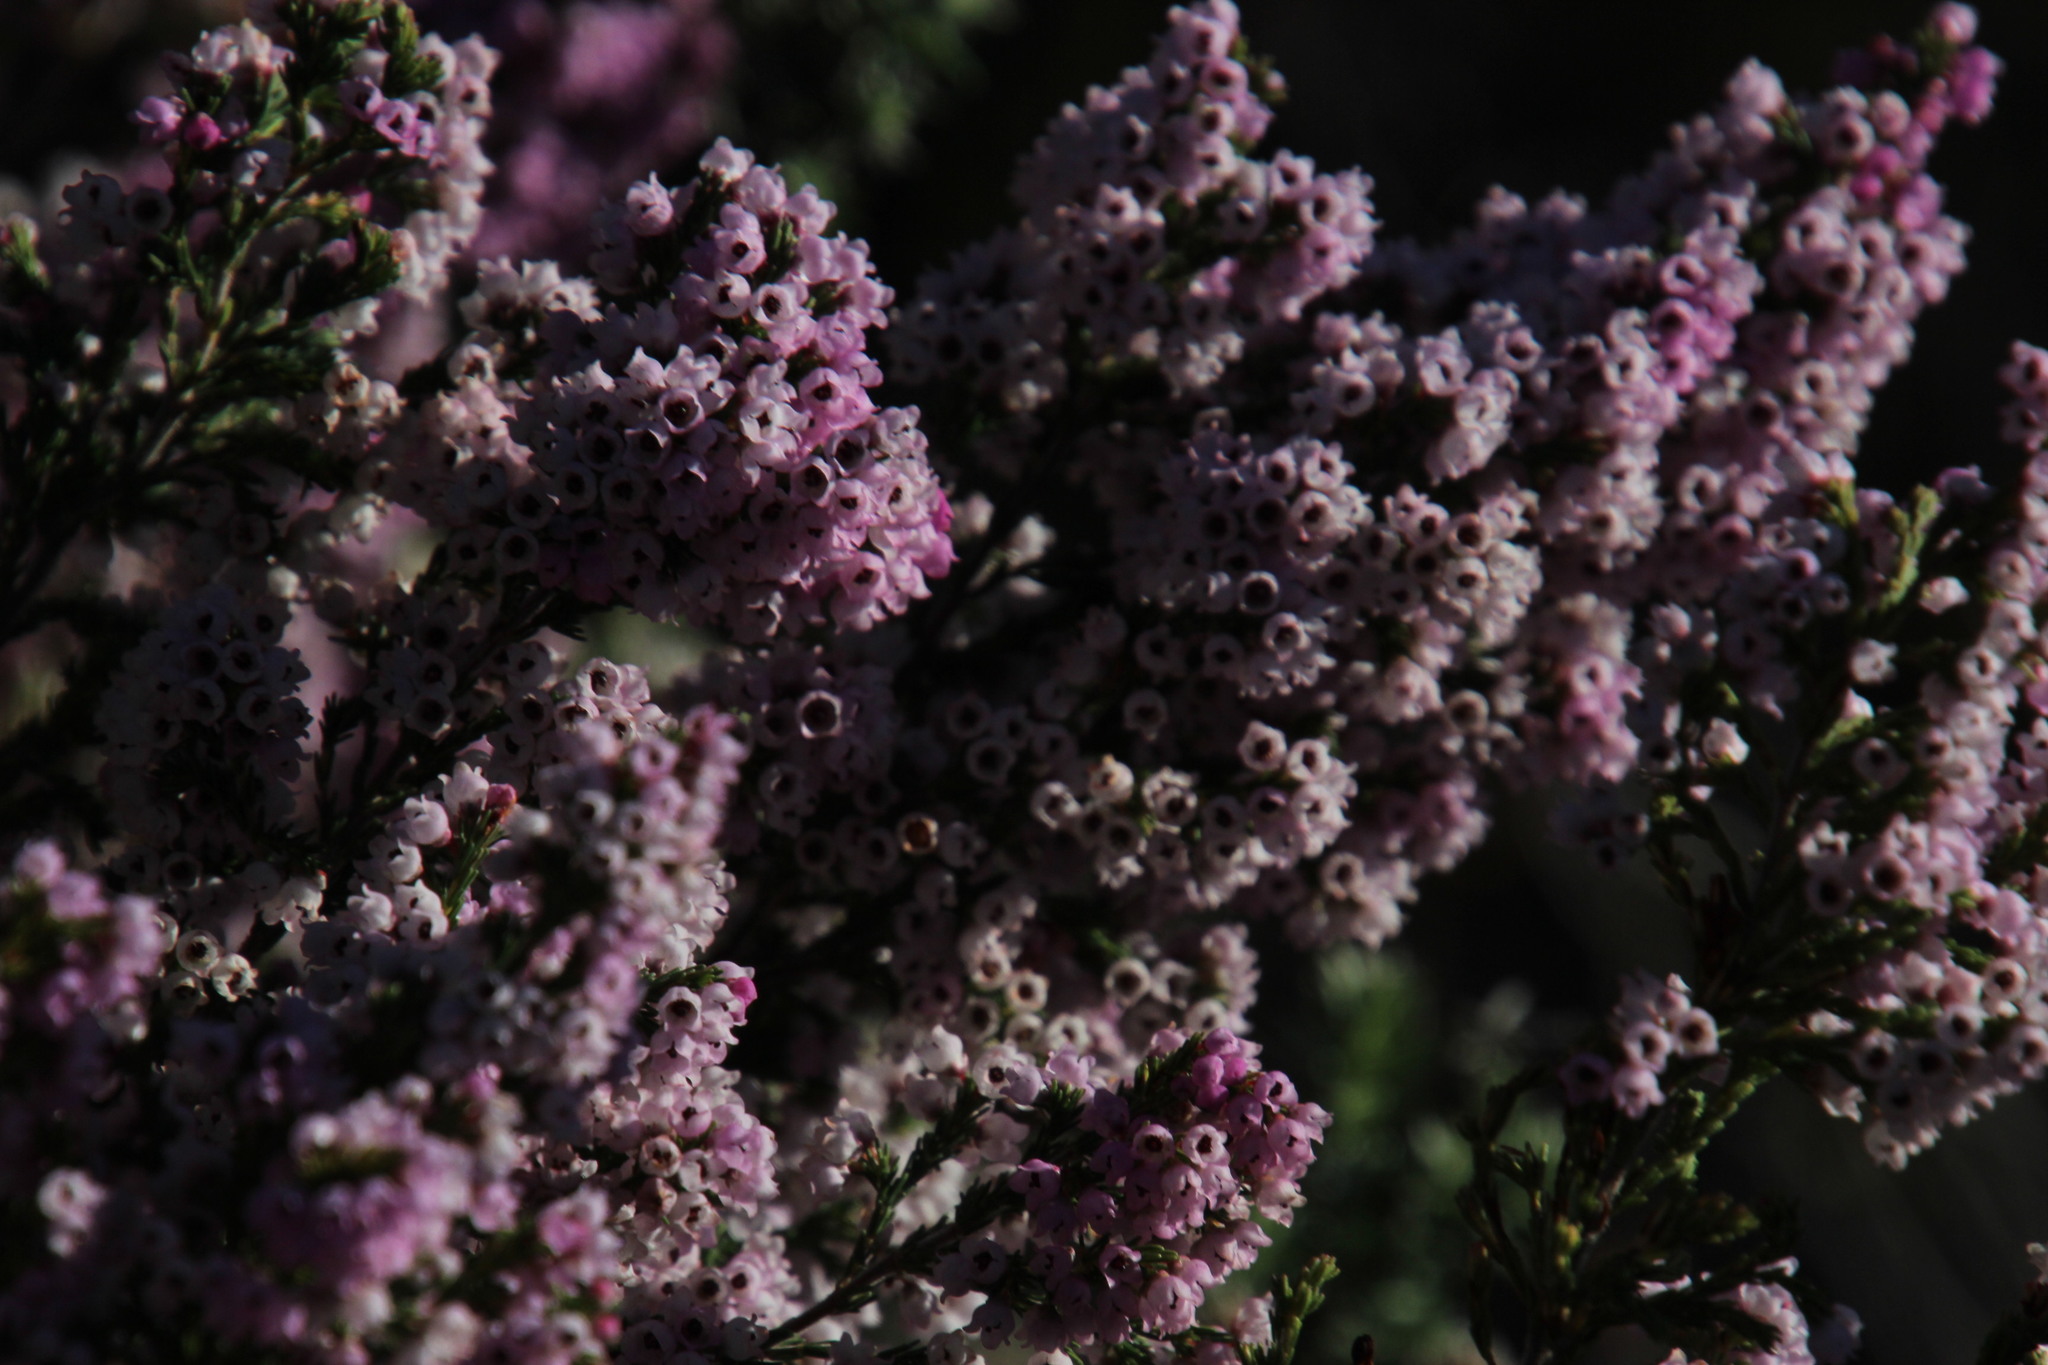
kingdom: Plantae
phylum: Tracheophyta
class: Magnoliopsida
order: Ericales
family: Ericaceae
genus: Erica
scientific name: Erica mauritanica
